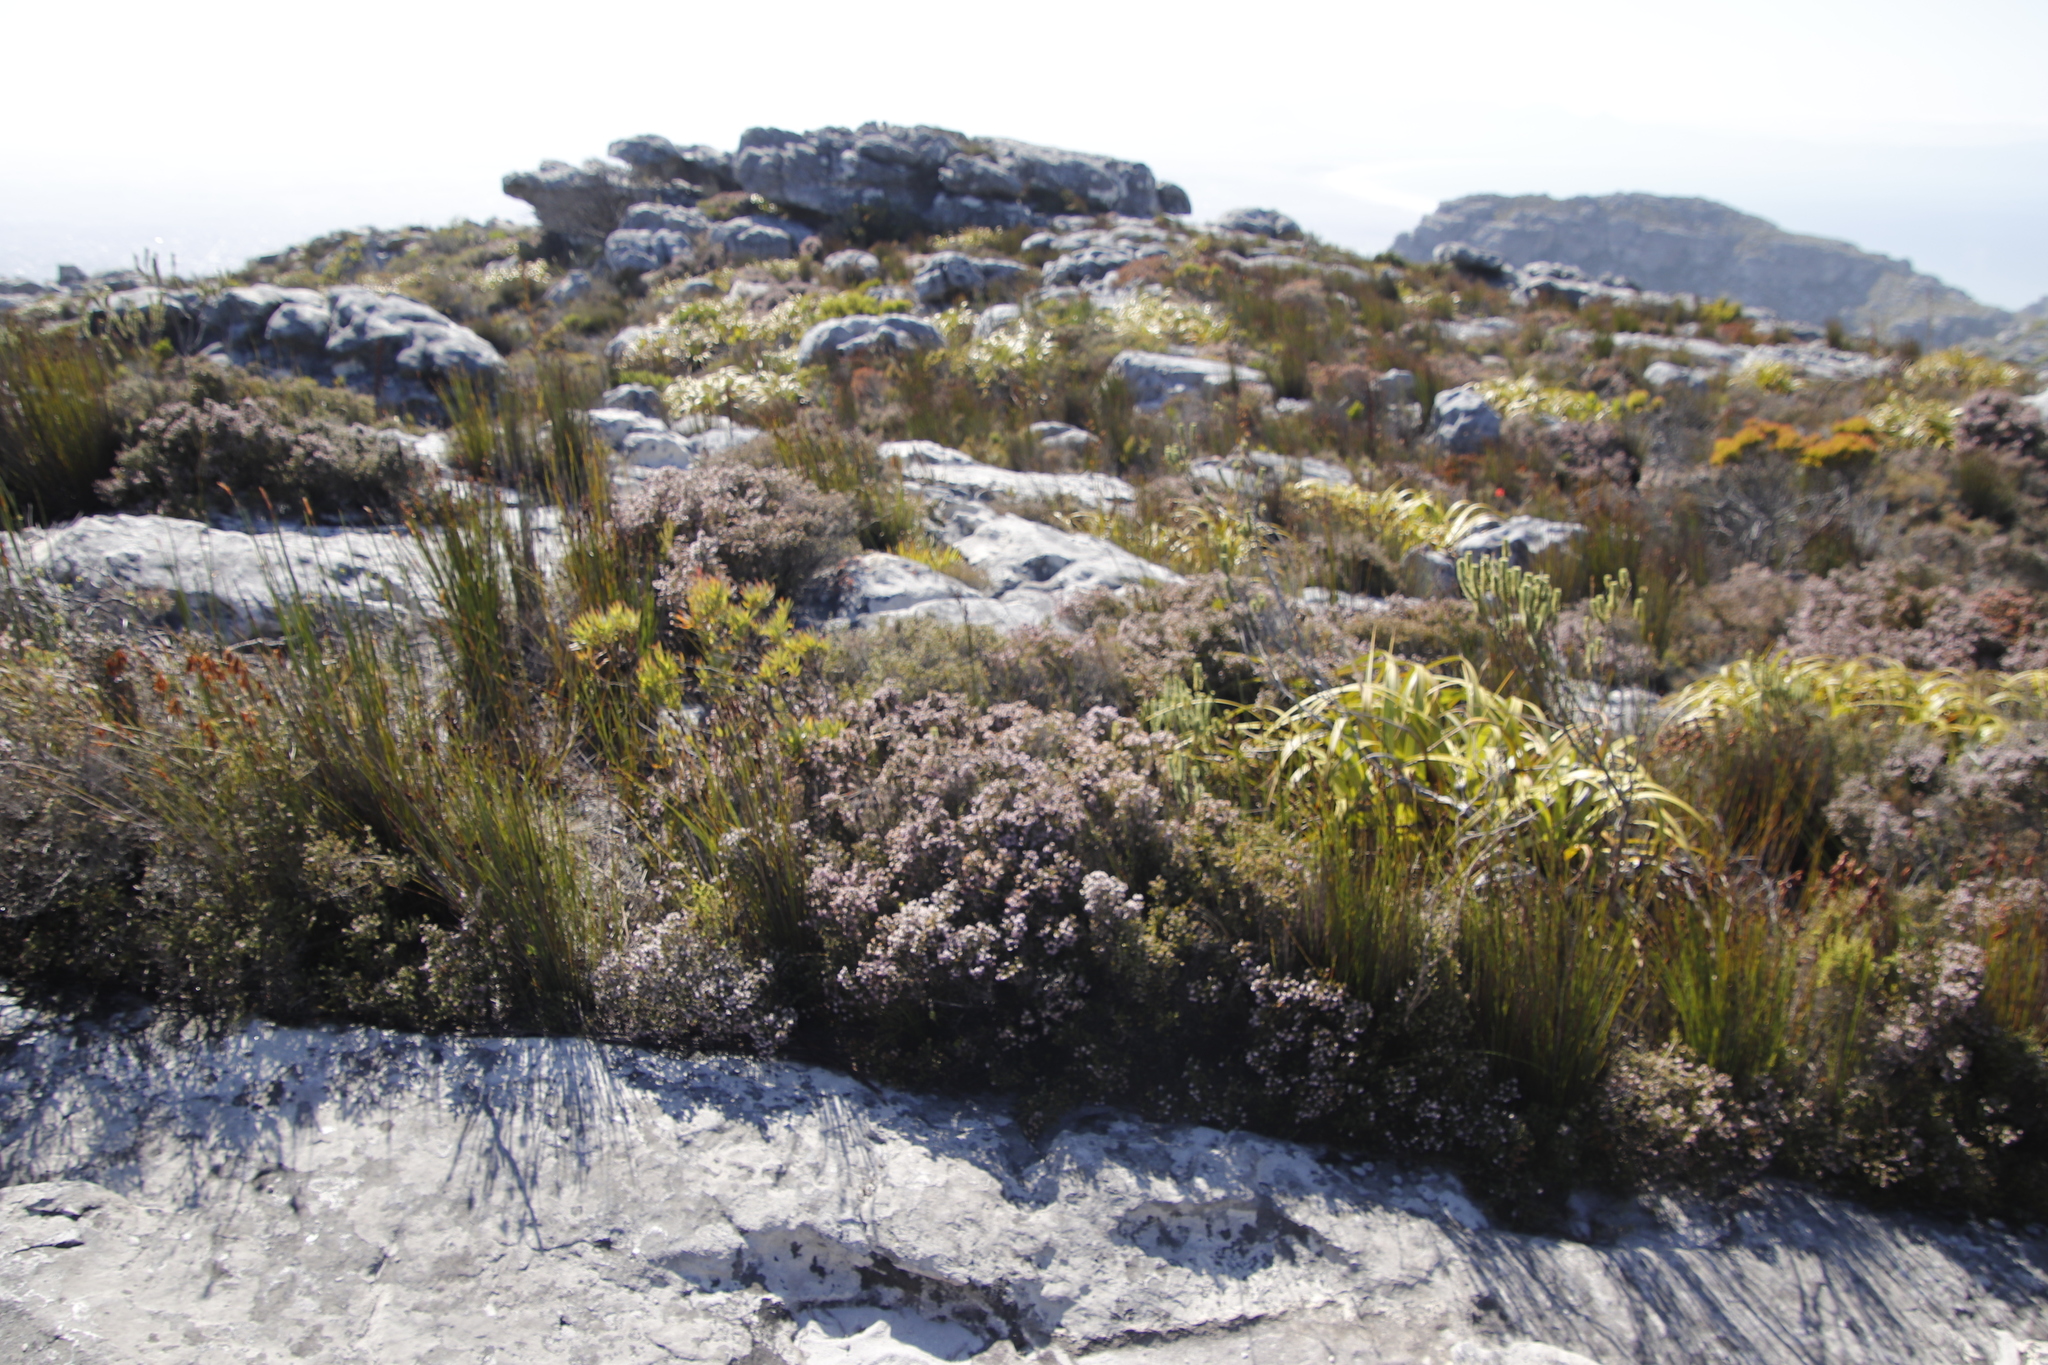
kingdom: Plantae
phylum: Tracheophyta
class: Liliopsida
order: Poales
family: Cyperaceae
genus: Tetraria
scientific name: Tetraria thermalis
